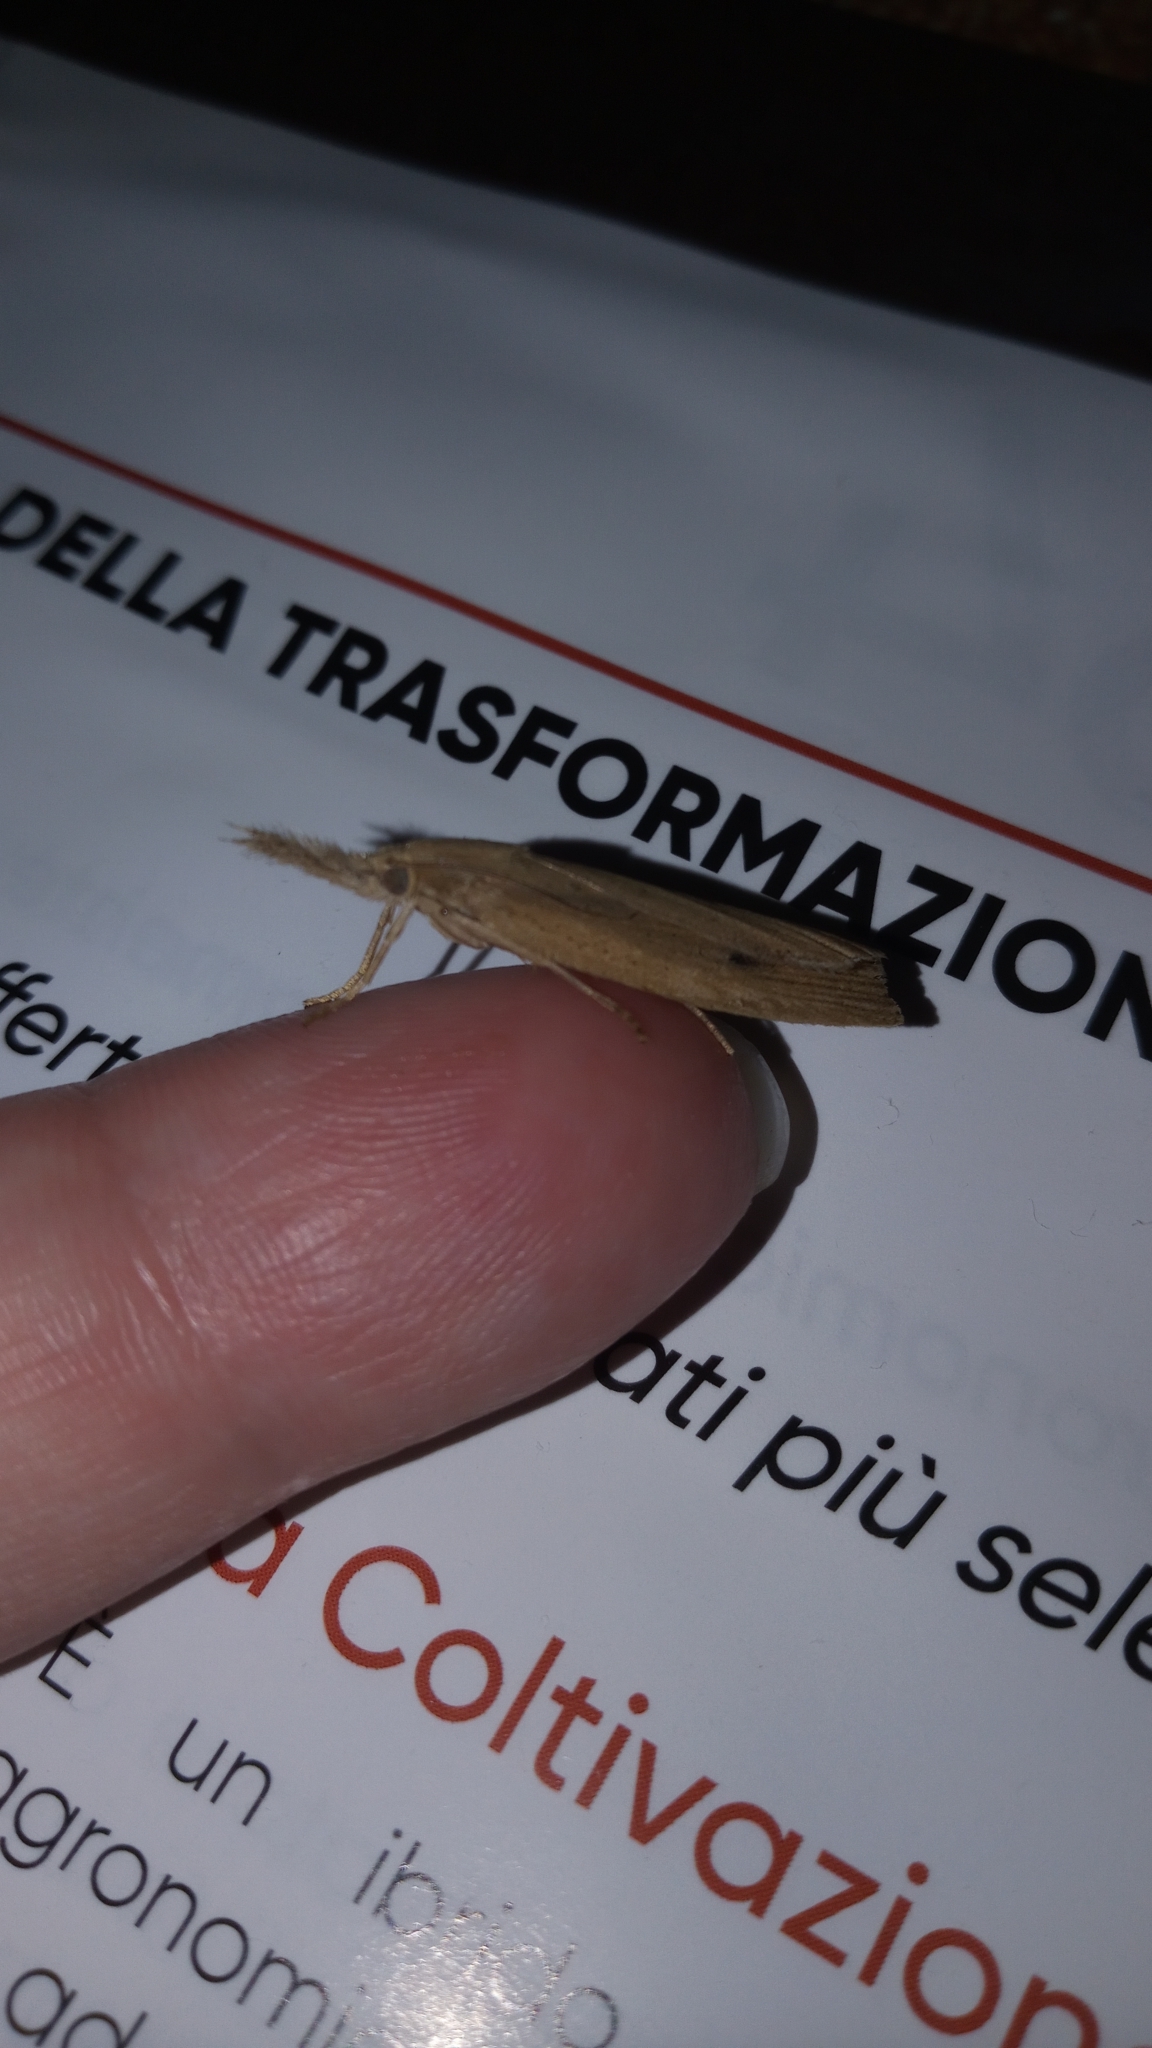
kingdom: Animalia
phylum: Arthropoda
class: Insecta
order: Lepidoptera
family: Crambidae
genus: Chilo
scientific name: Chilo phragmitella
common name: Reed veneer
